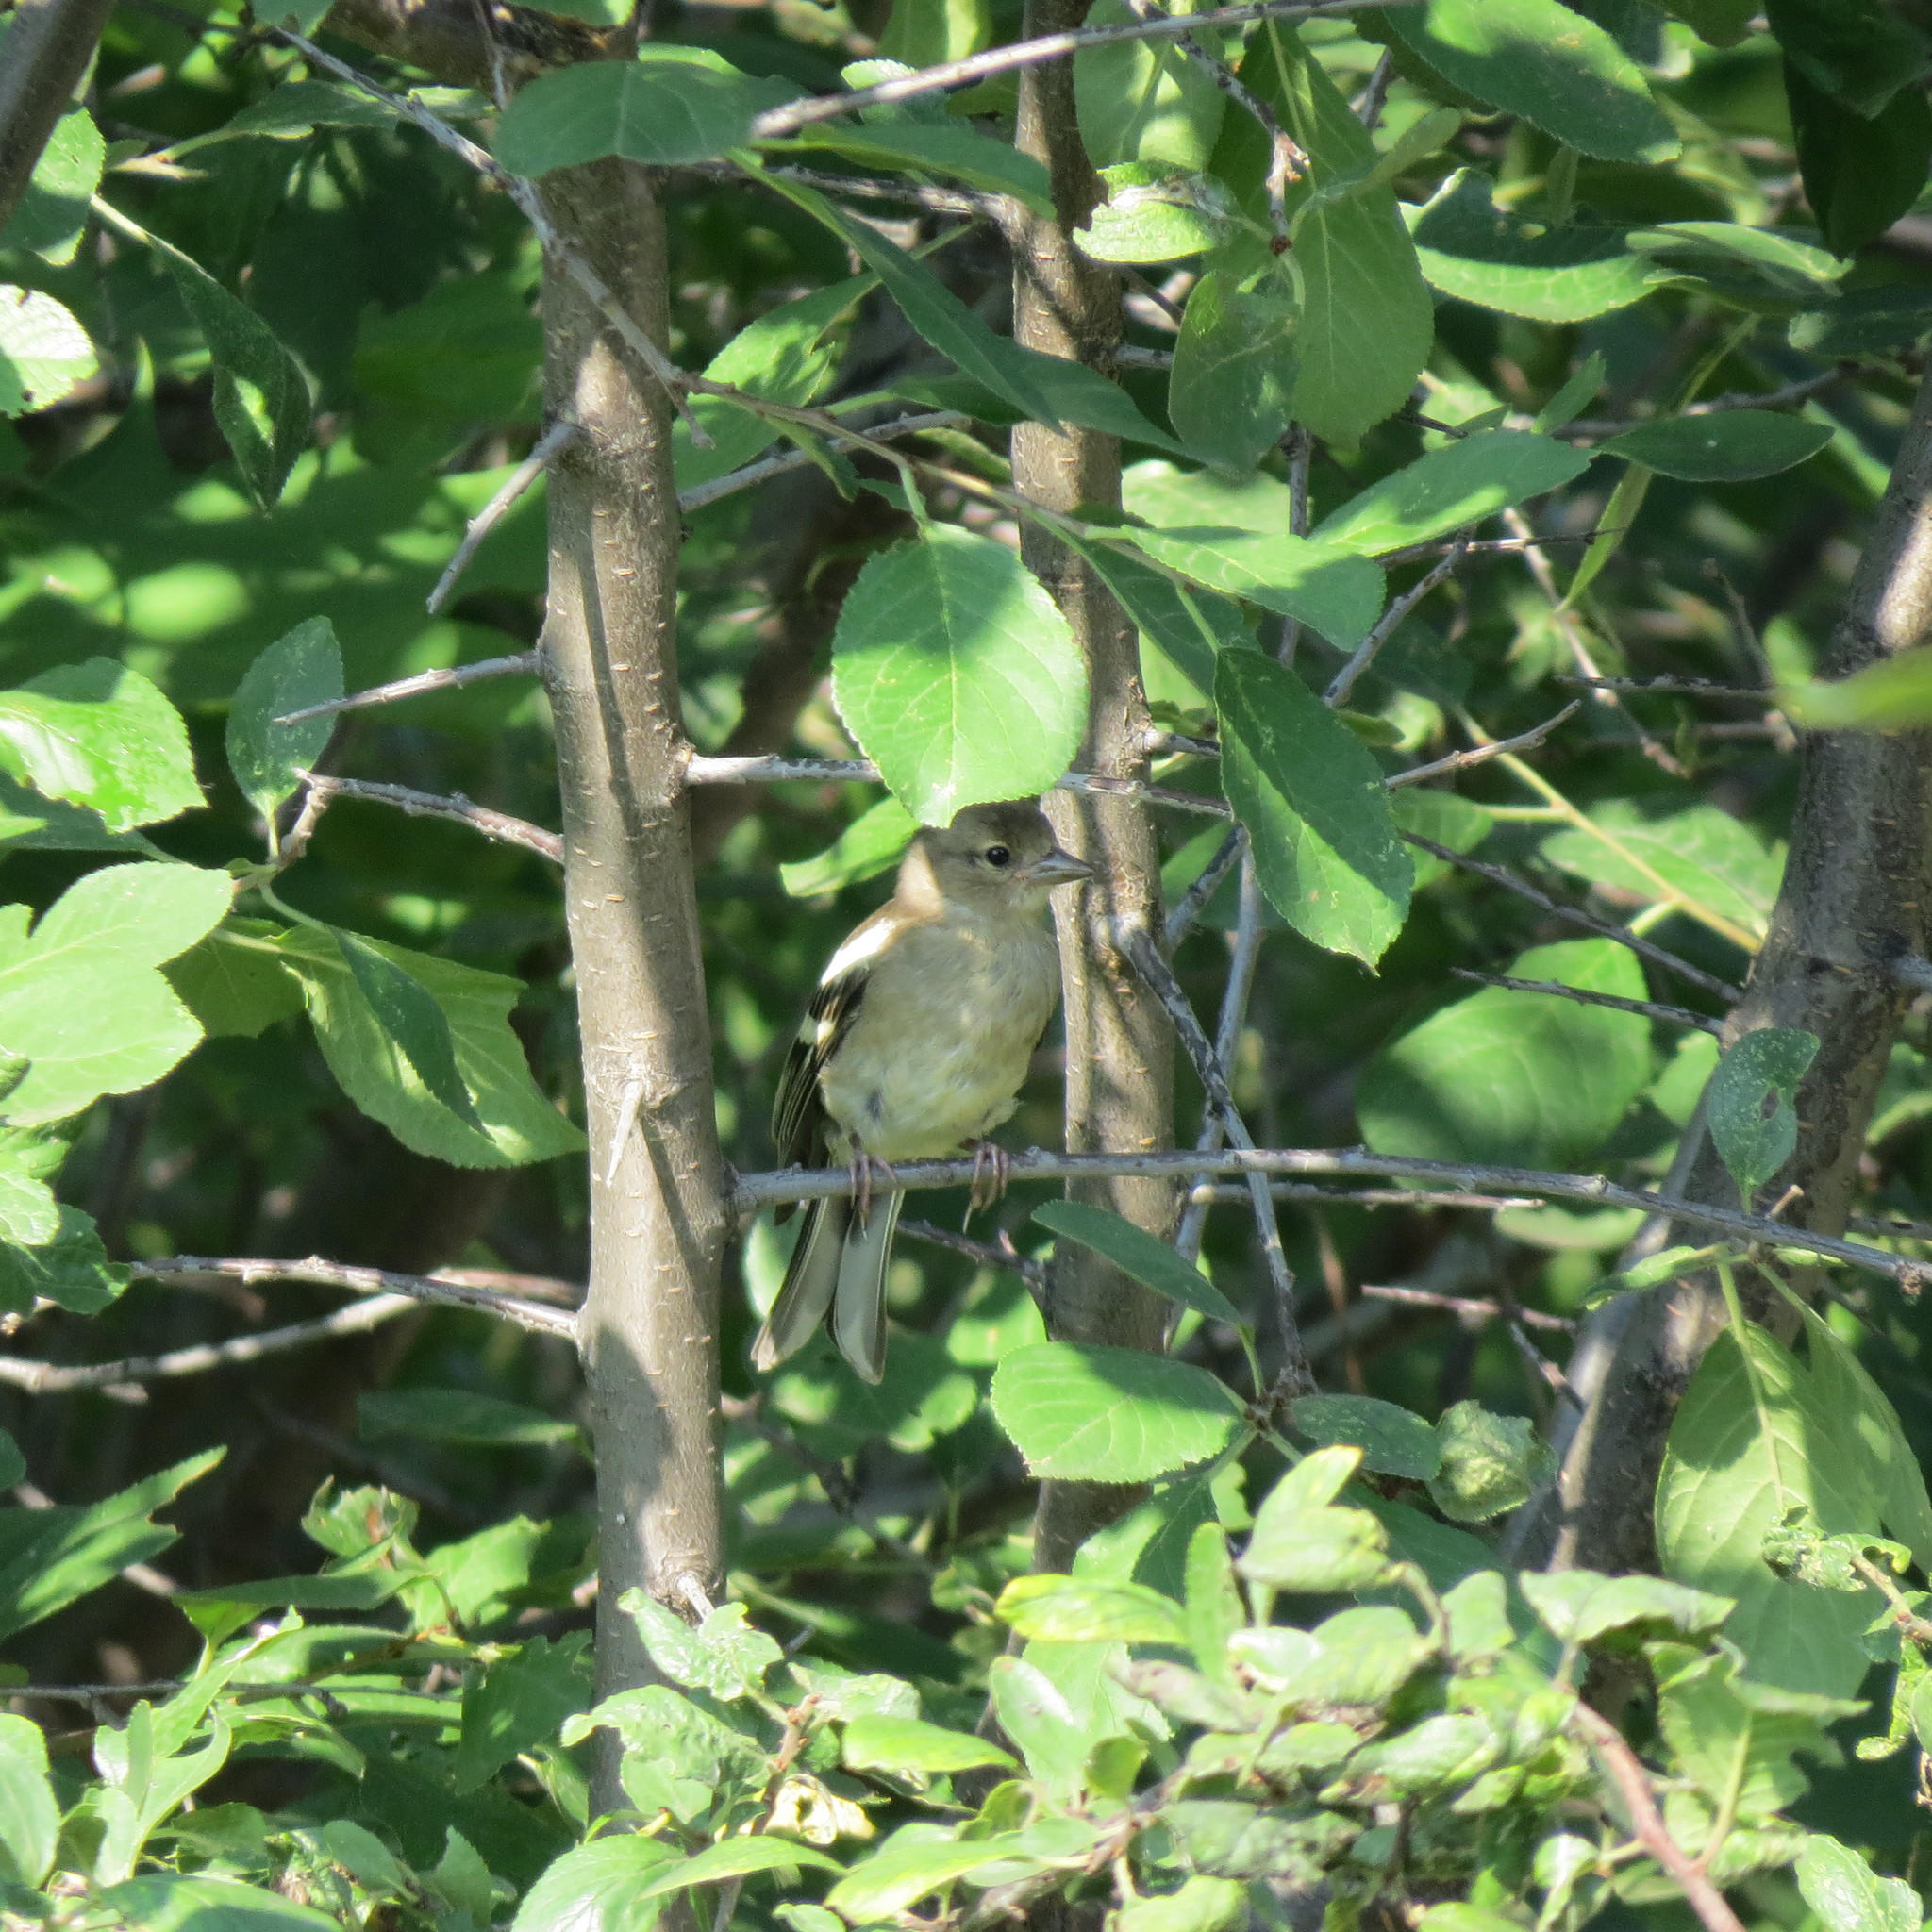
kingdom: Animalia
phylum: Chordata
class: Aves
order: Passeriformes
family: Fringillidae
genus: Fringilla
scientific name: Fringilla coelebs
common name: Common chaffinch
